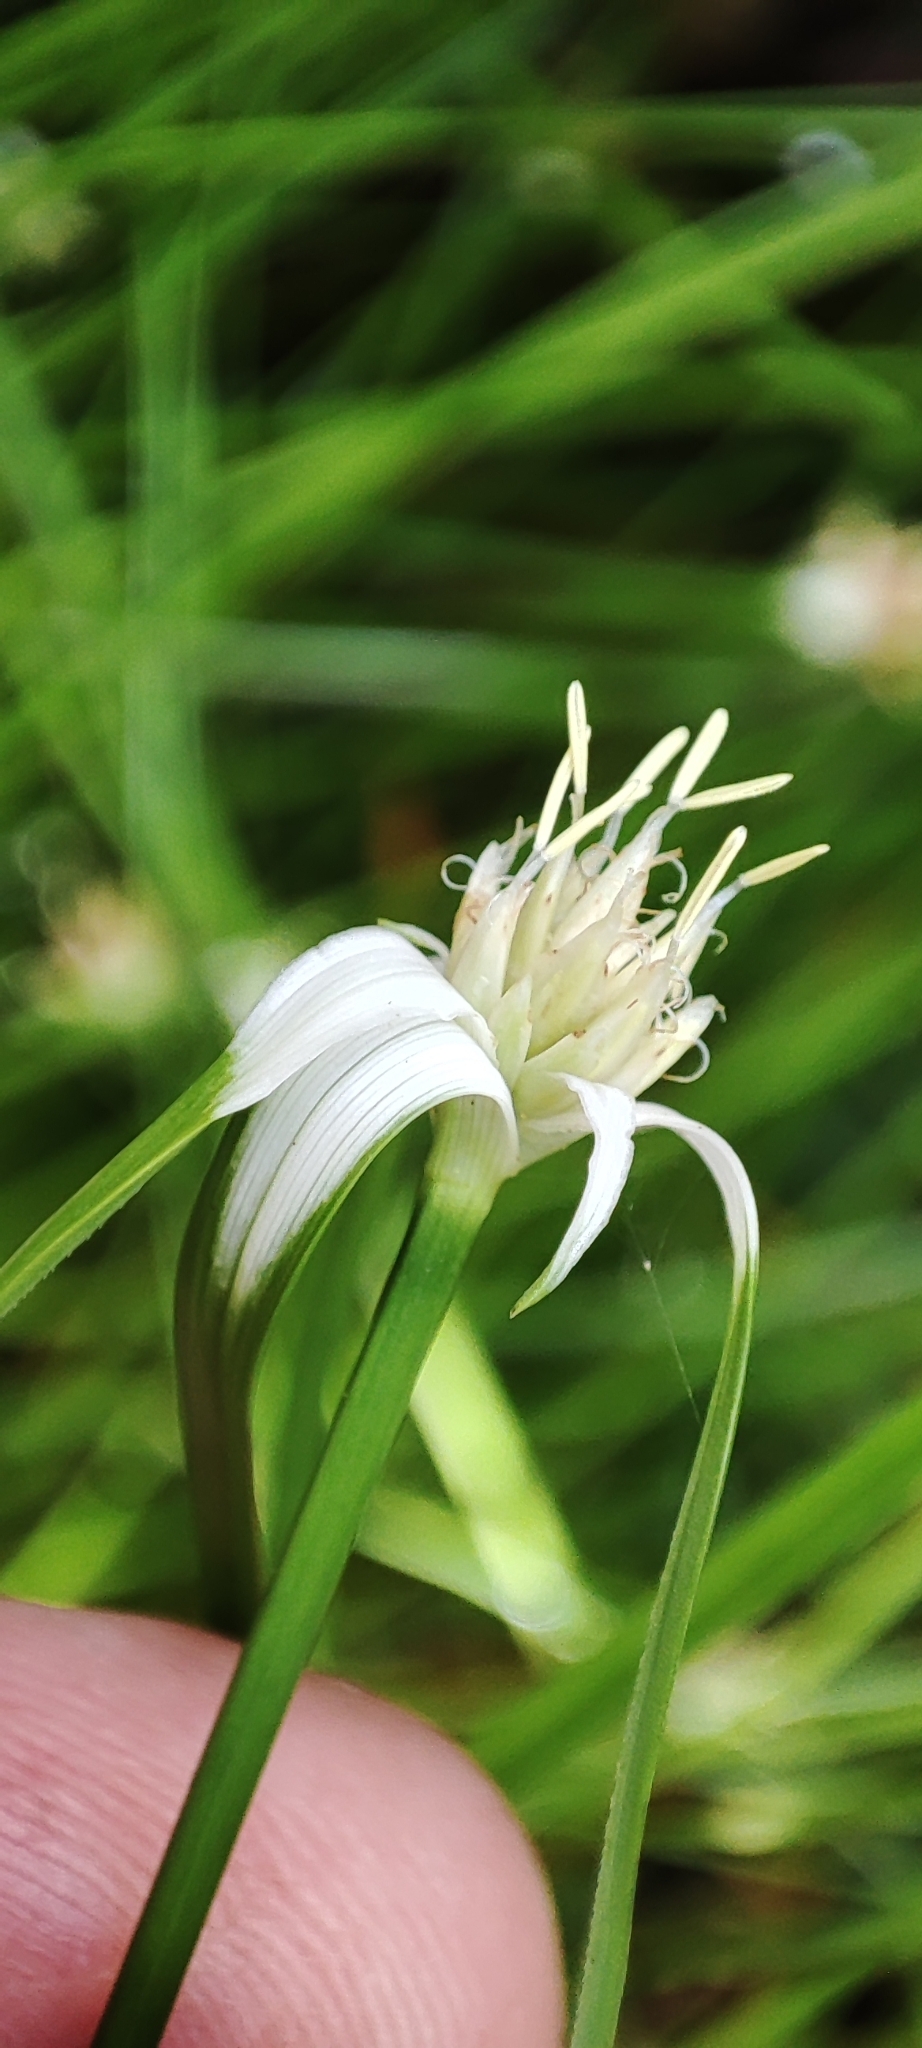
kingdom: Plantae
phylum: Tracheophyta
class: Liliopsida
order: Poales
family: Cyperaceae
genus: Rhynchospora
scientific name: Rhynchospora colorata
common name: Star sedge
